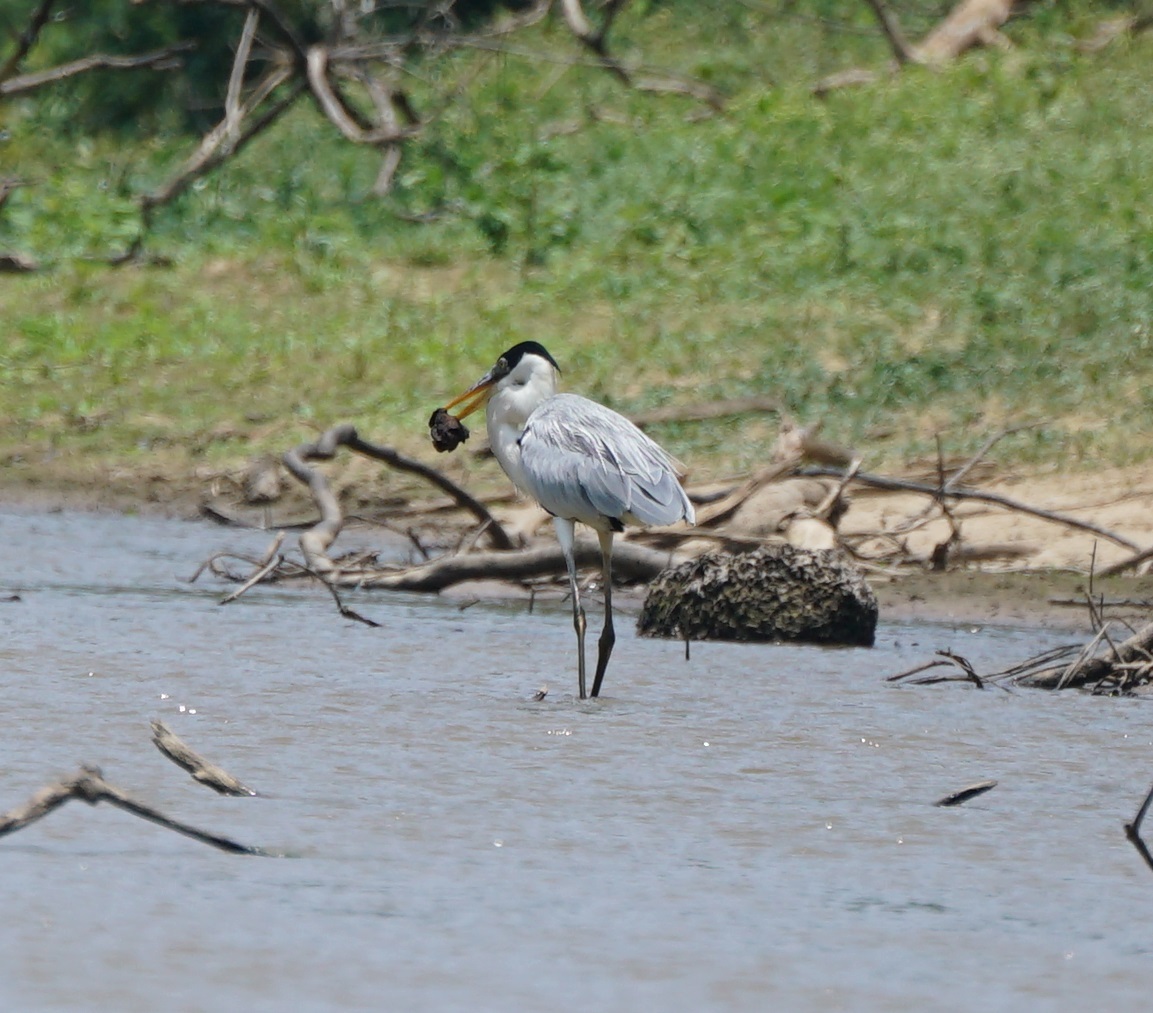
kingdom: Animalia
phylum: Chordata
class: Aves
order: Pelecaniformes
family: Ardeidae
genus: Ardea
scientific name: Ardea cocoi
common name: Cocoi heron
